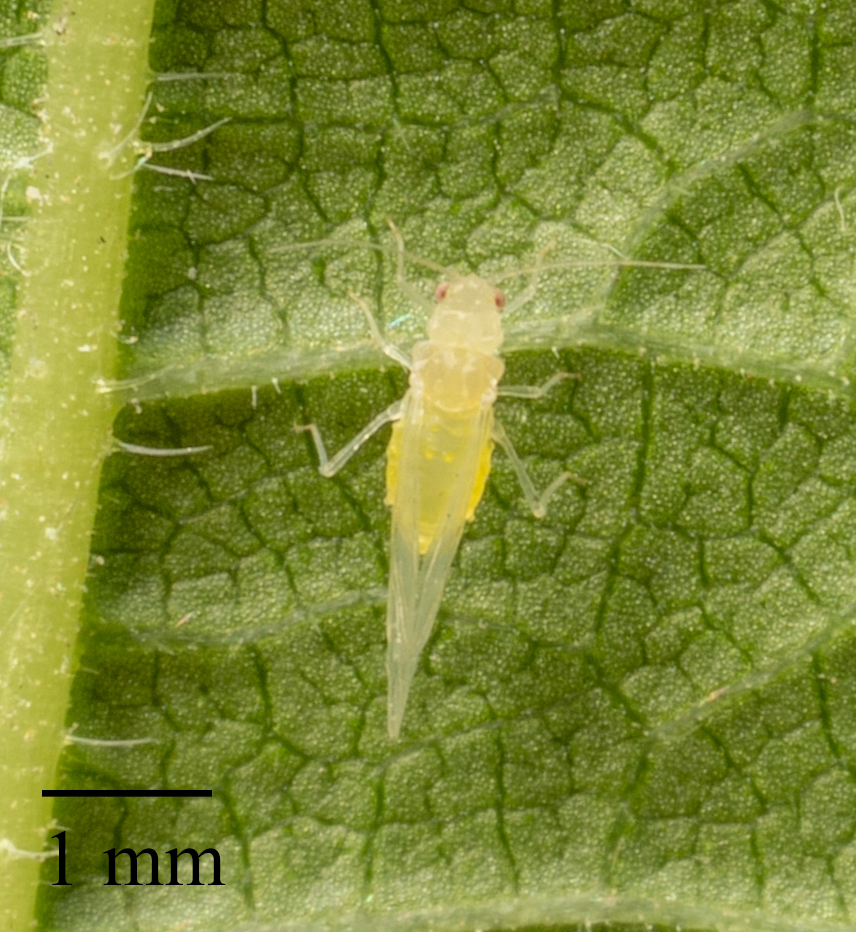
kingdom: Animalia
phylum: Arthropoda
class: Insecta
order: Hemiptera
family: Aphididae
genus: Tinocallis
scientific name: Tinocallis nevskyi
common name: Gold elm aphid
